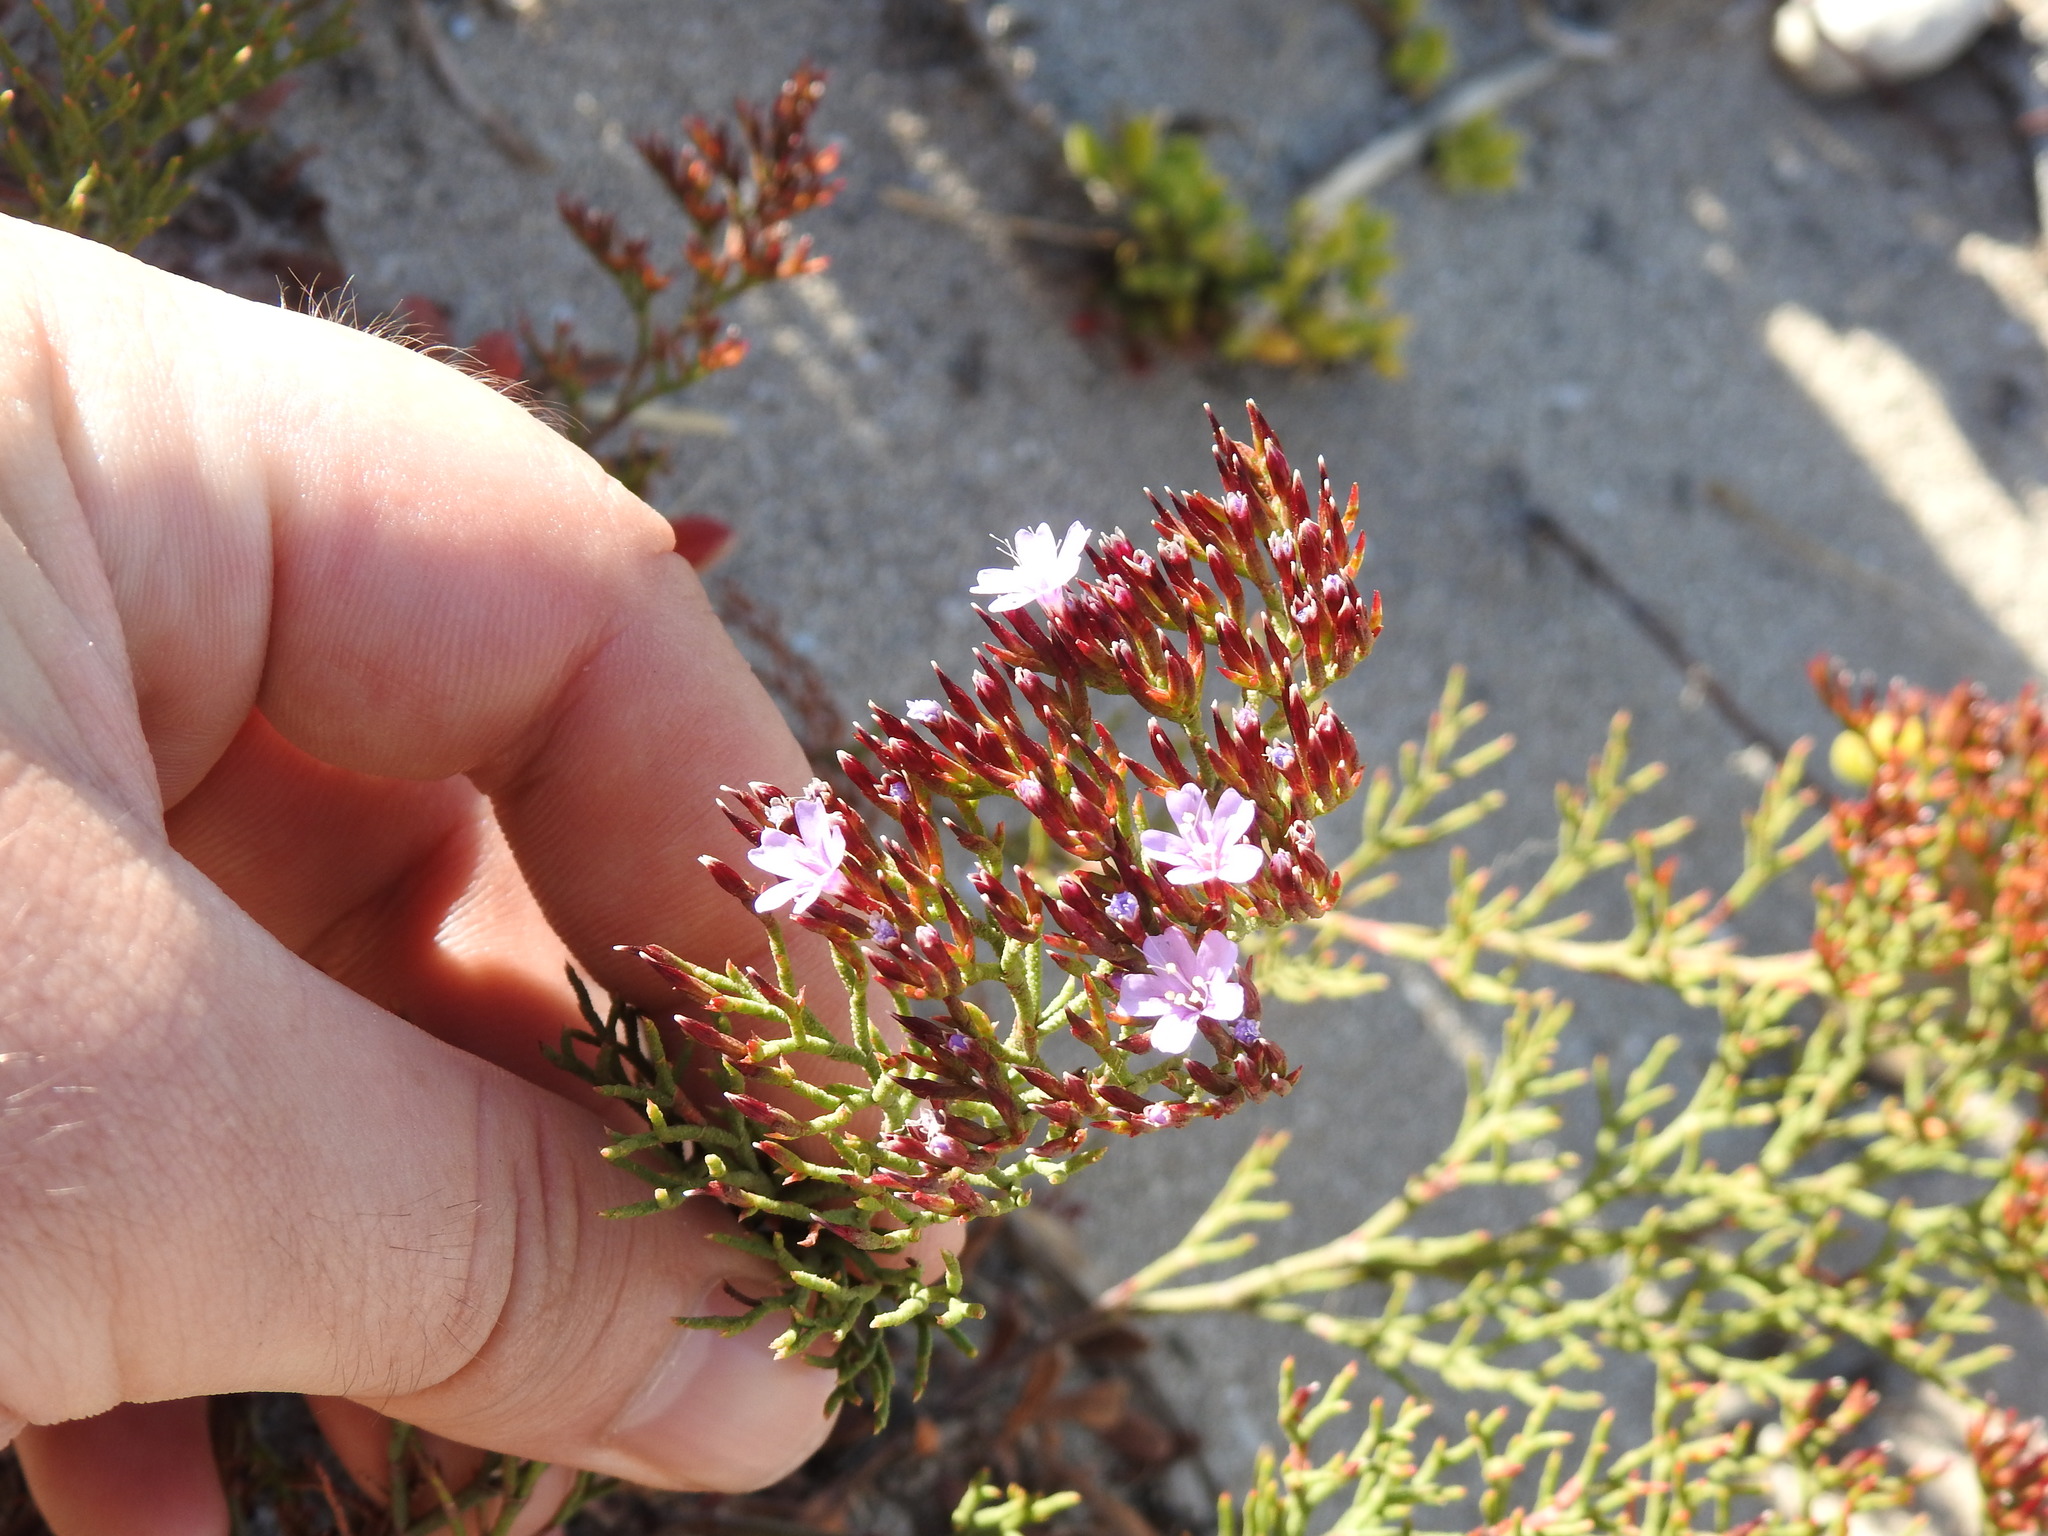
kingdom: Plantae
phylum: Tracheophyta
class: Magnoliopsida
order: Caryophyllales
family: Plumbaginaceae
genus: Limonium
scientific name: Limonium scabrum
